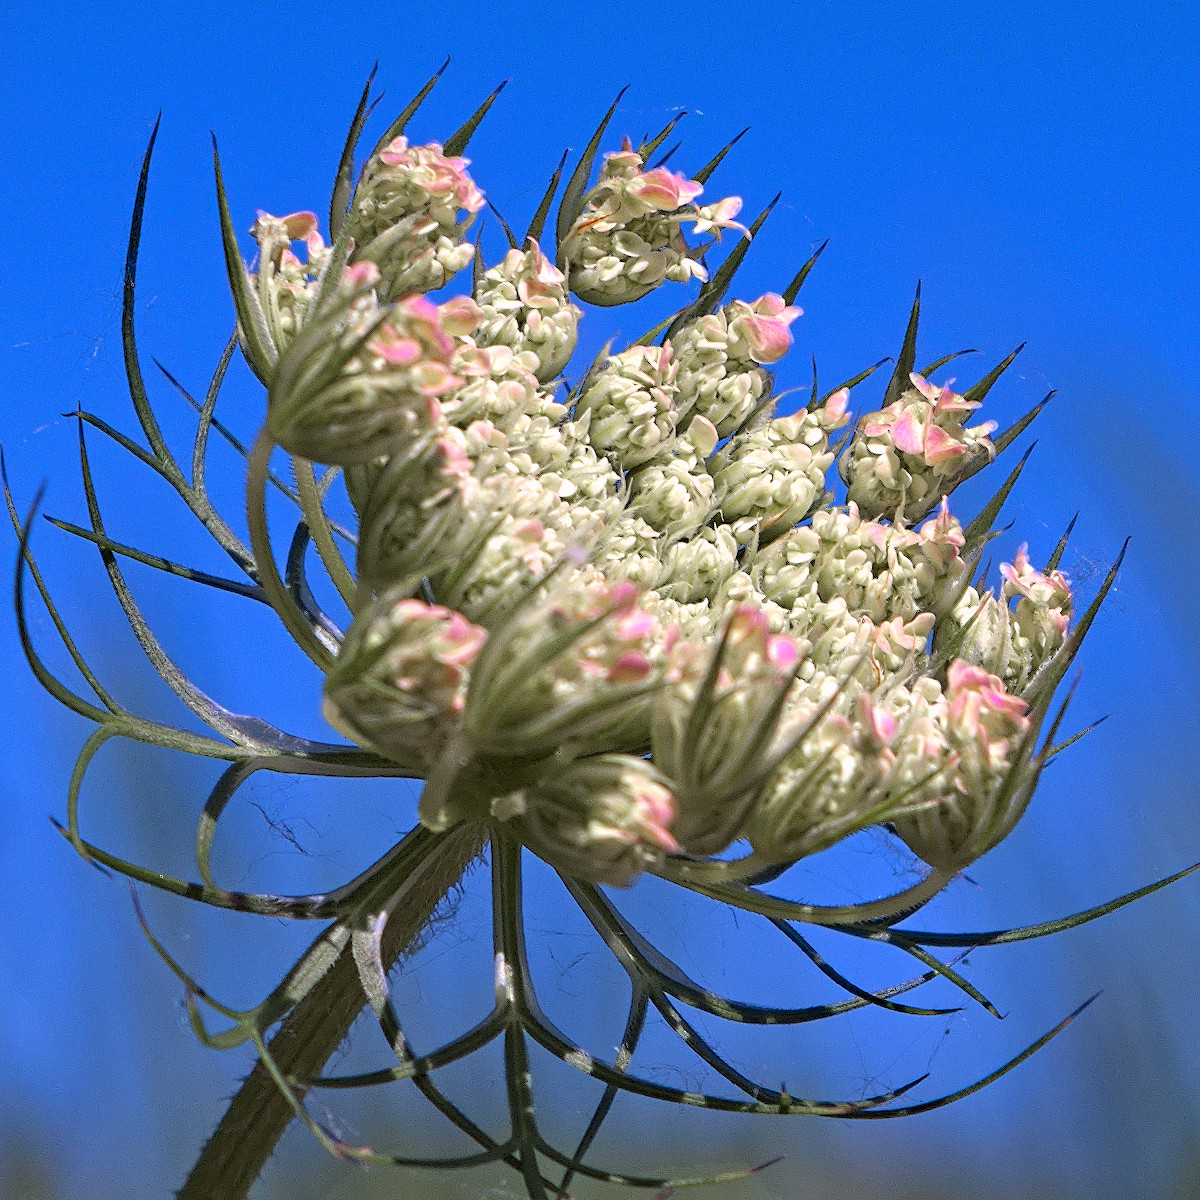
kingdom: Plantae
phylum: Tracheophyta
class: Magnoliopsida
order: Apiales
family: Apiaceae
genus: Daucus
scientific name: Daucus carota
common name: Wild carrot
